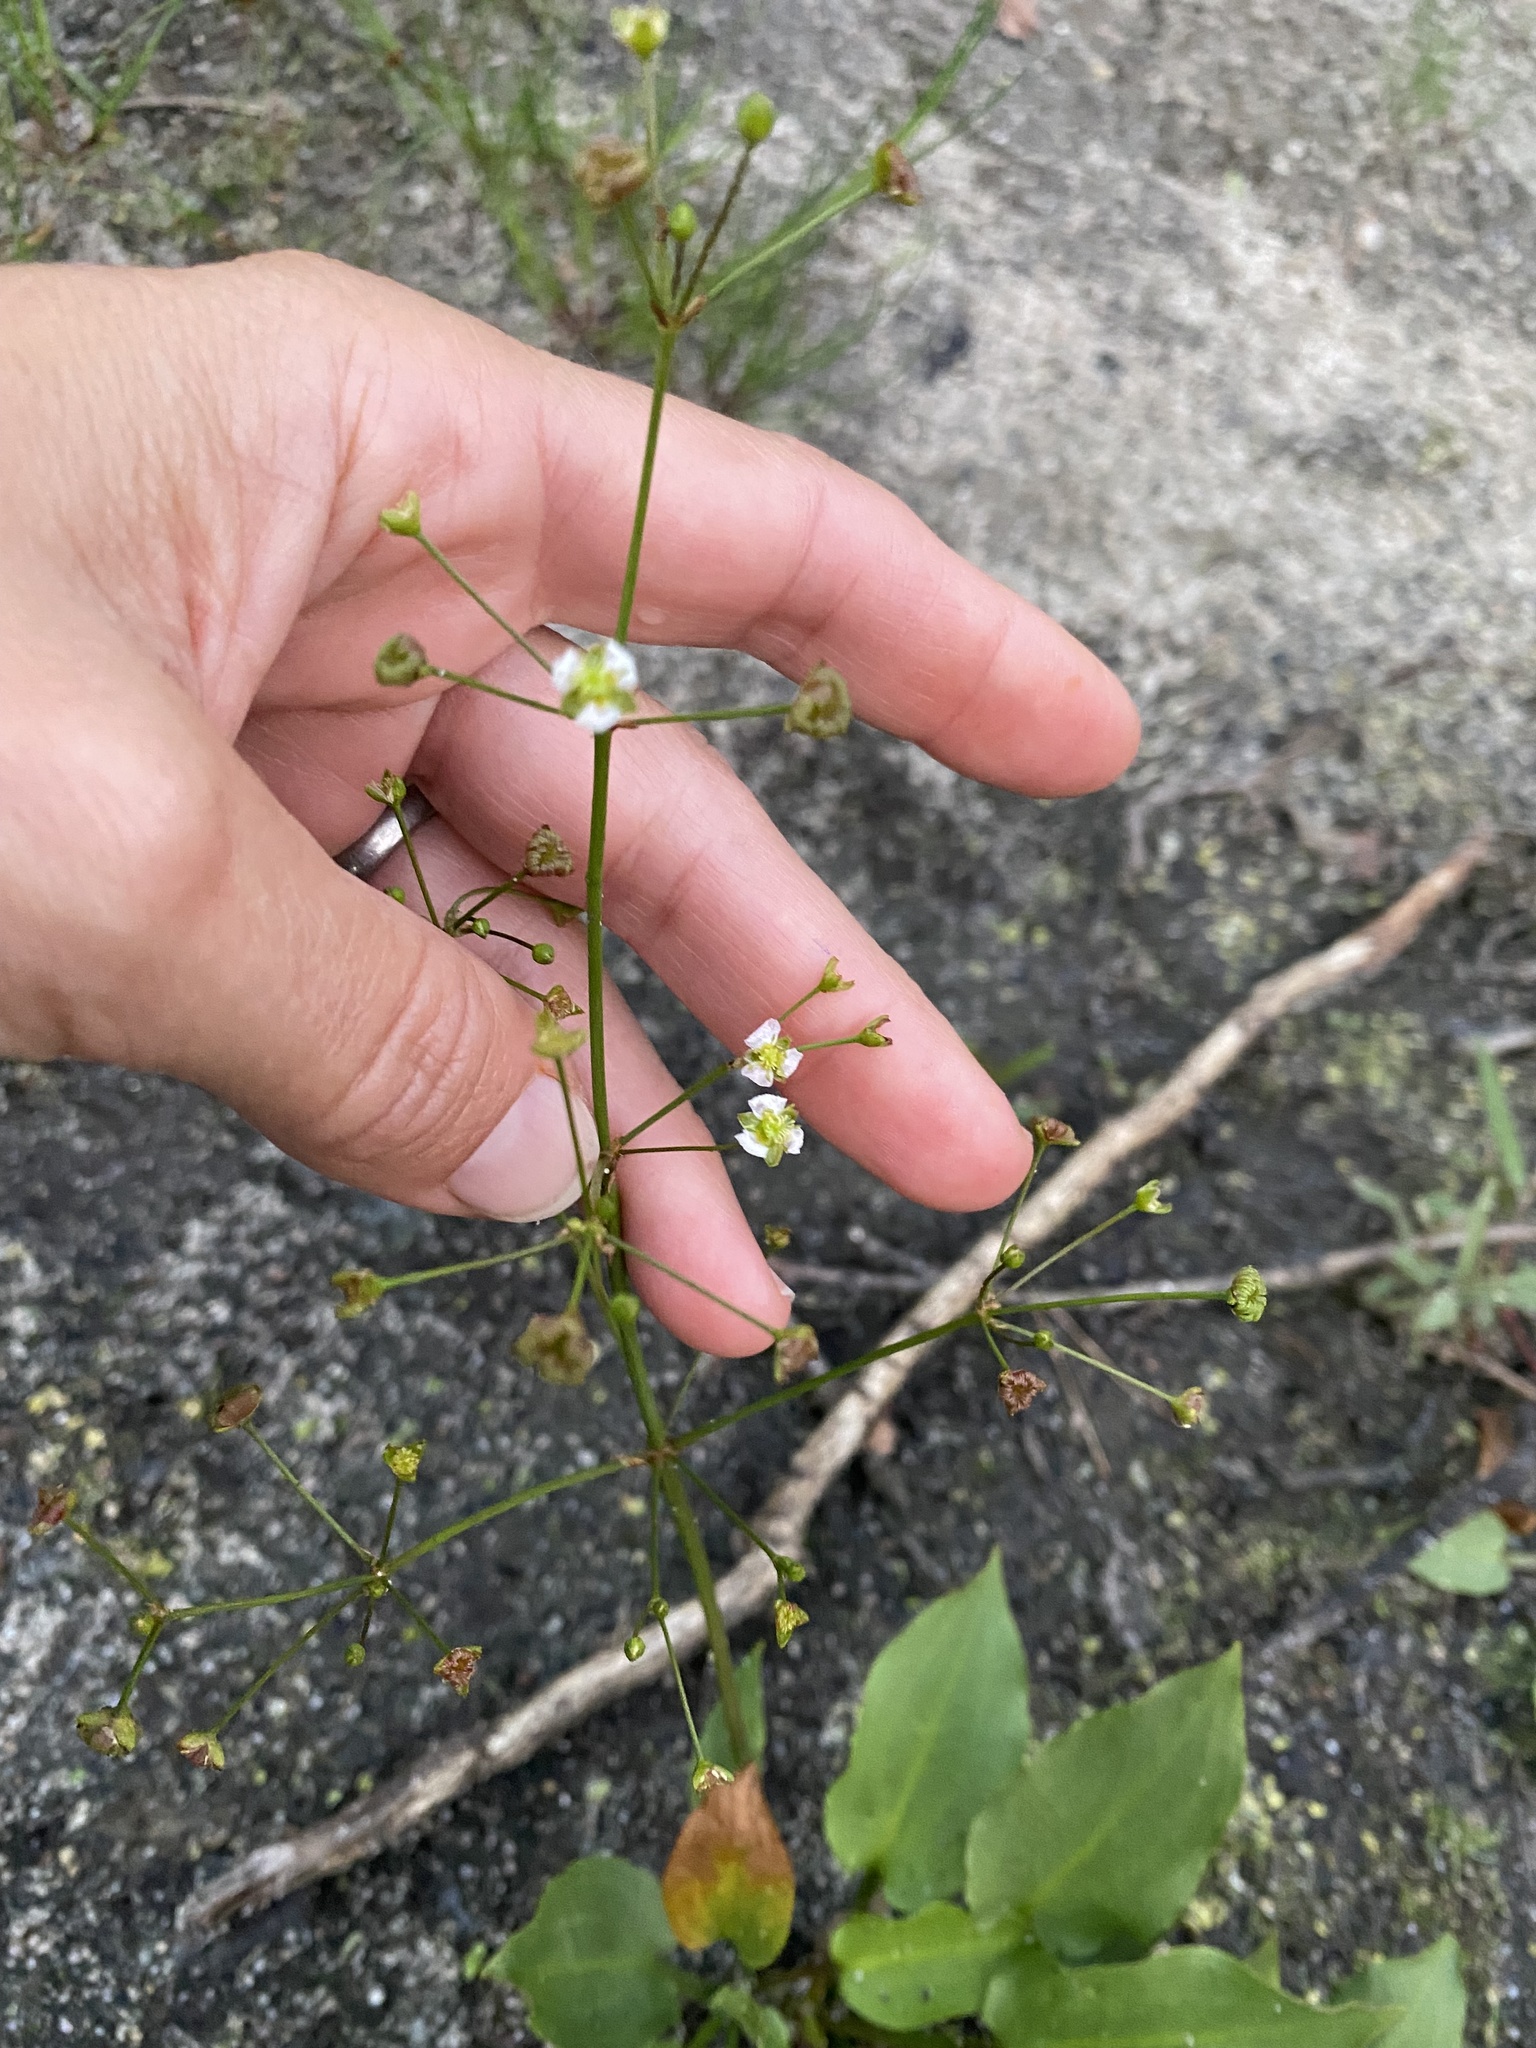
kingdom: Plantae
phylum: Tracheophyta
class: Liliopsida
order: Alismatales
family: Alismataceae
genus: Alisma
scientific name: Alisma plantago-aquatica
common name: Water-plantain
